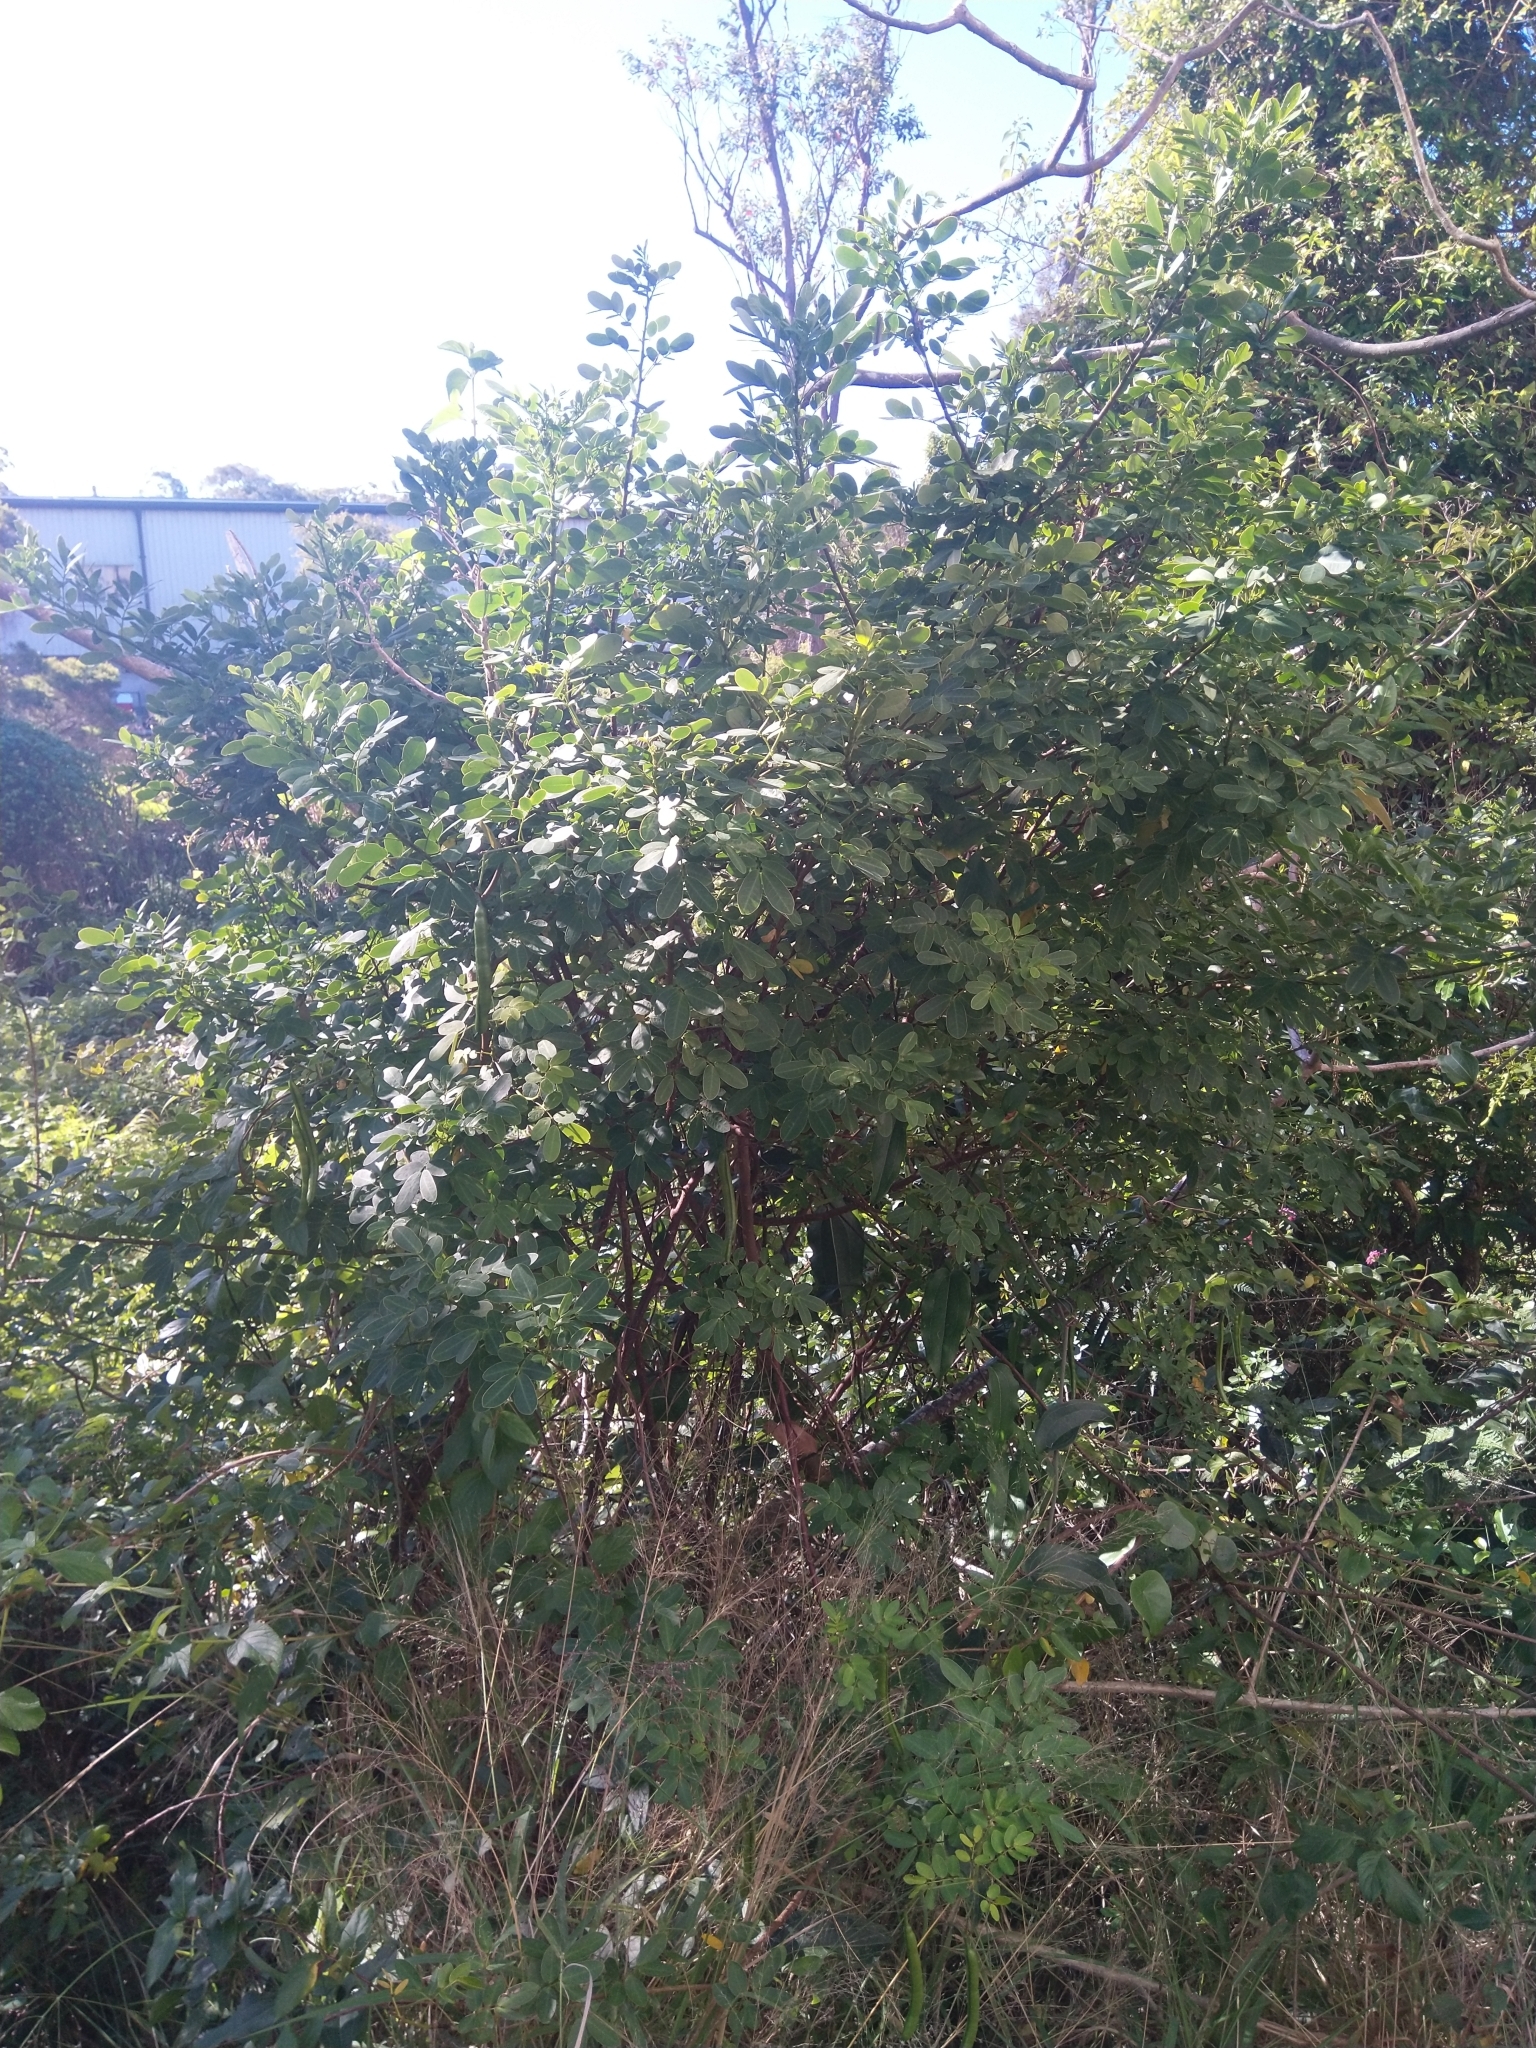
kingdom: Plantae
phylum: Tracheophyta
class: Magnoliopsida
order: Fabales
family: Fabaceae
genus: Senna
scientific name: Senna pendula
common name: Easter cassia
